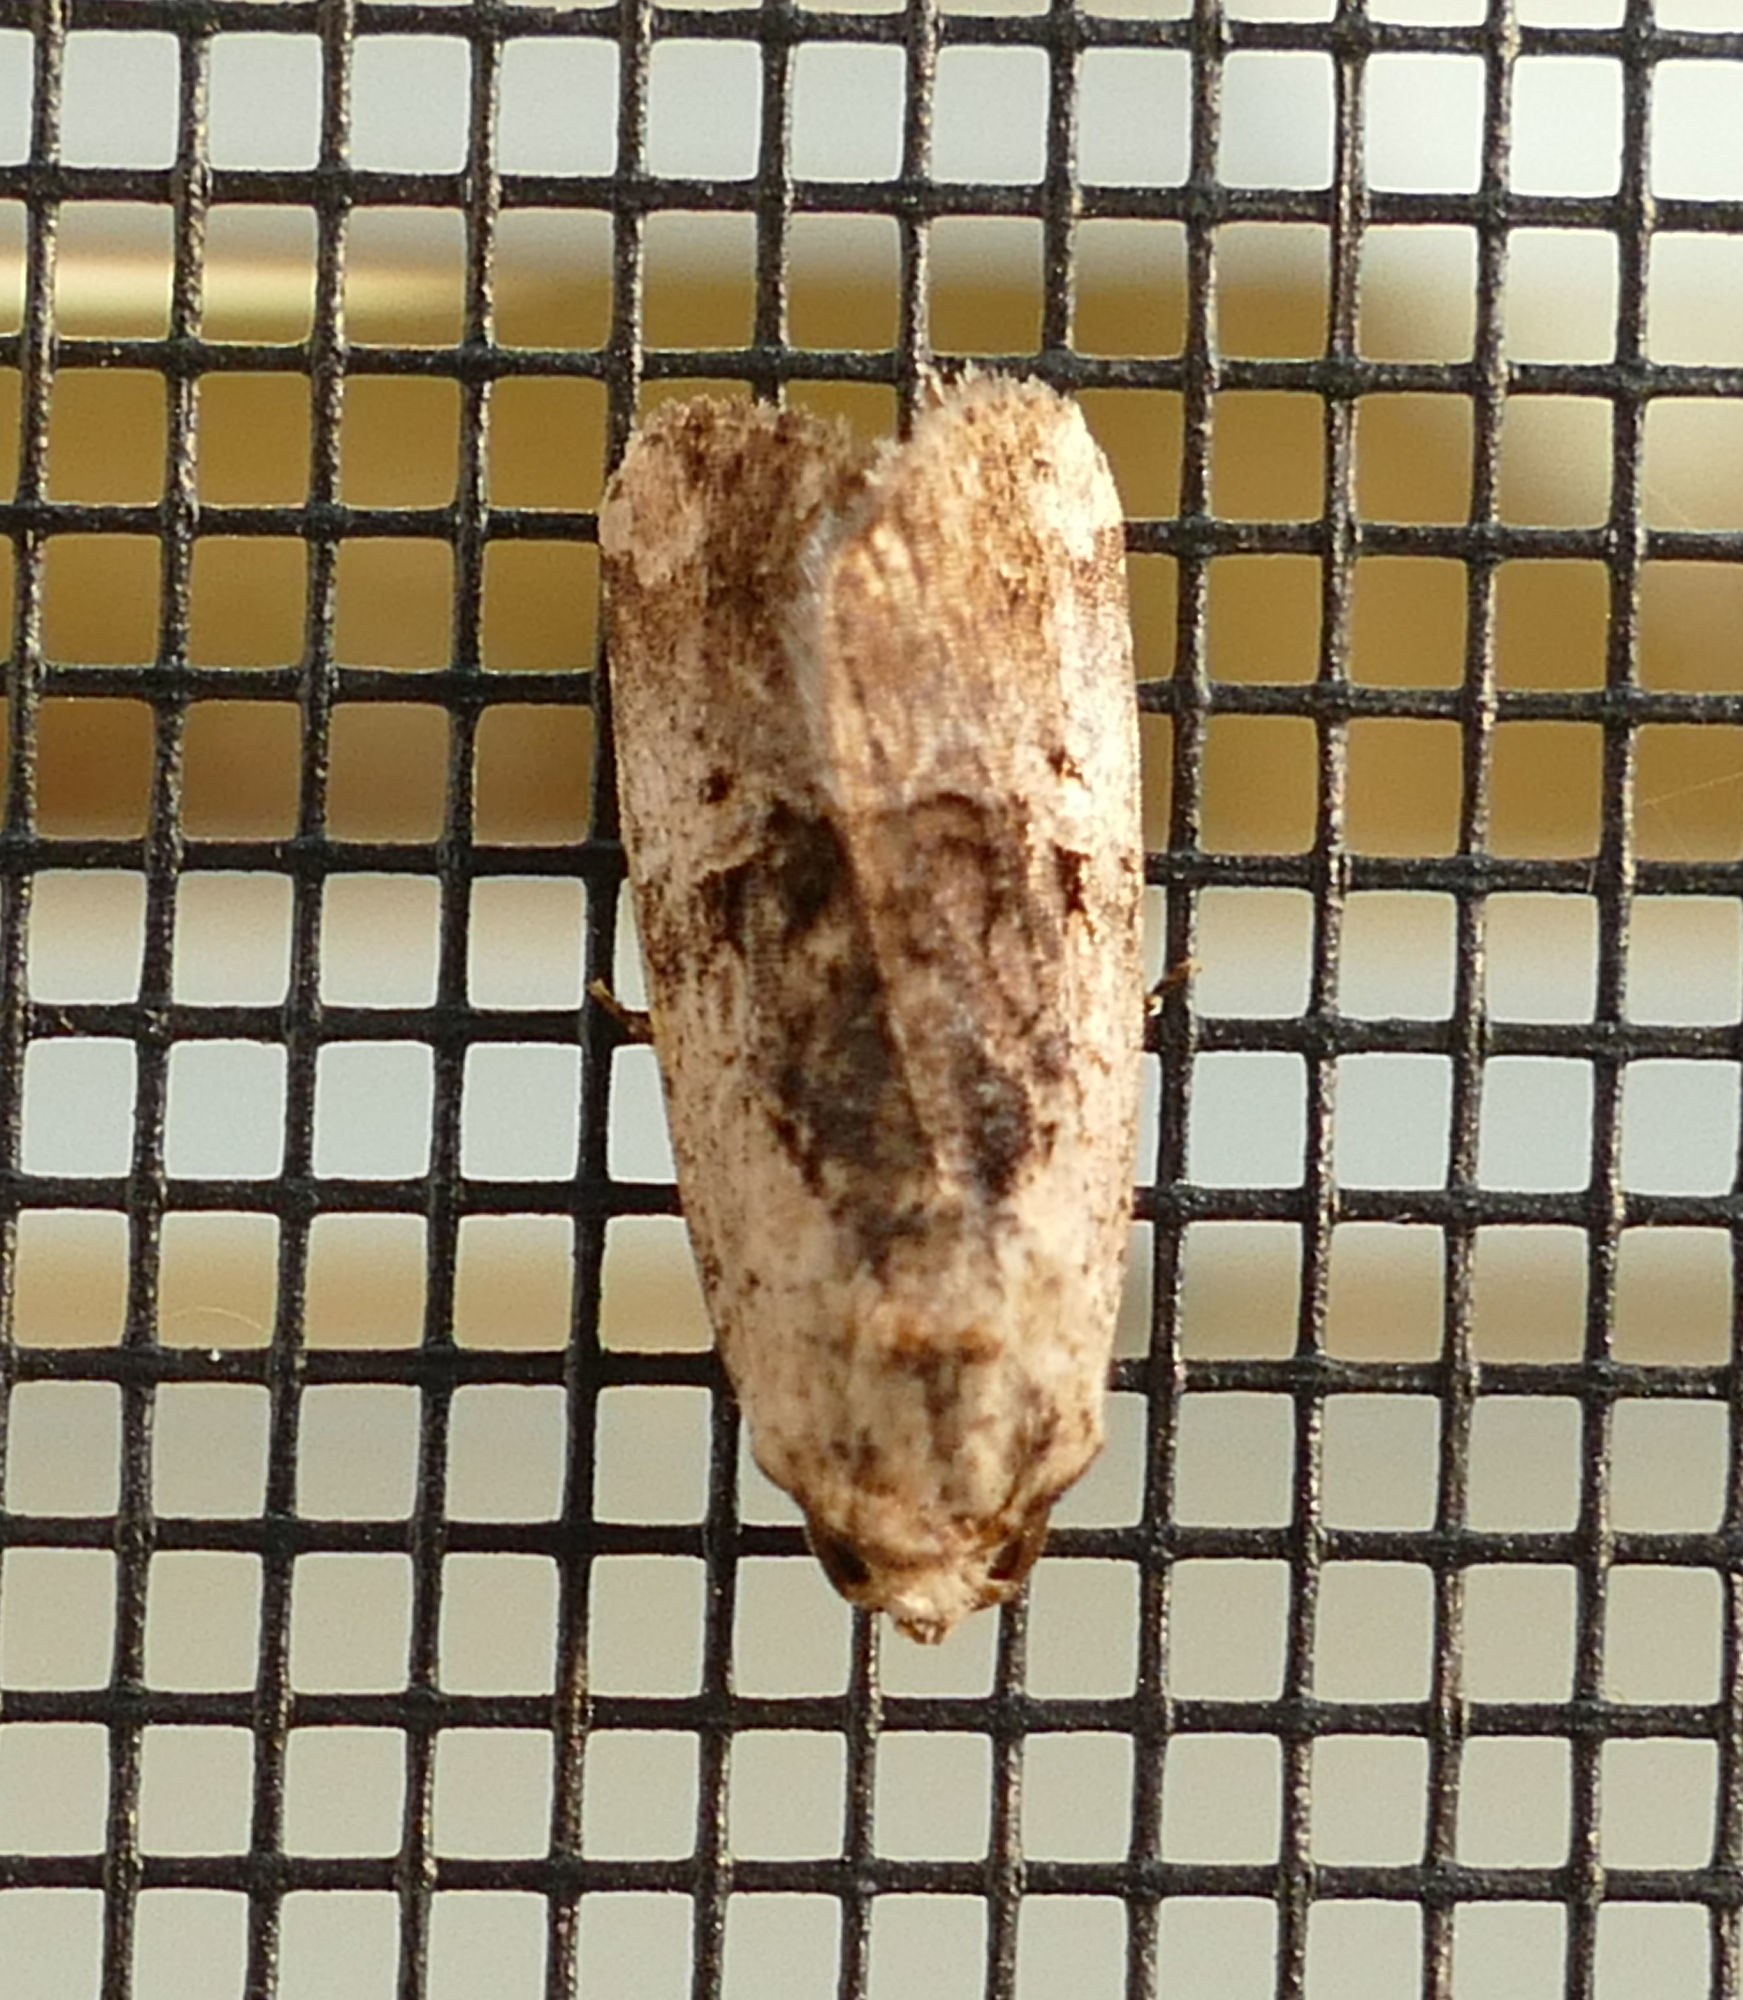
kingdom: Animalia
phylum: Arthropoda
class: Insecta
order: Lepidoptera
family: Noctuidae
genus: Elaphria
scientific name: Elaphria chalcedonia
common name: Chalcedony midget
